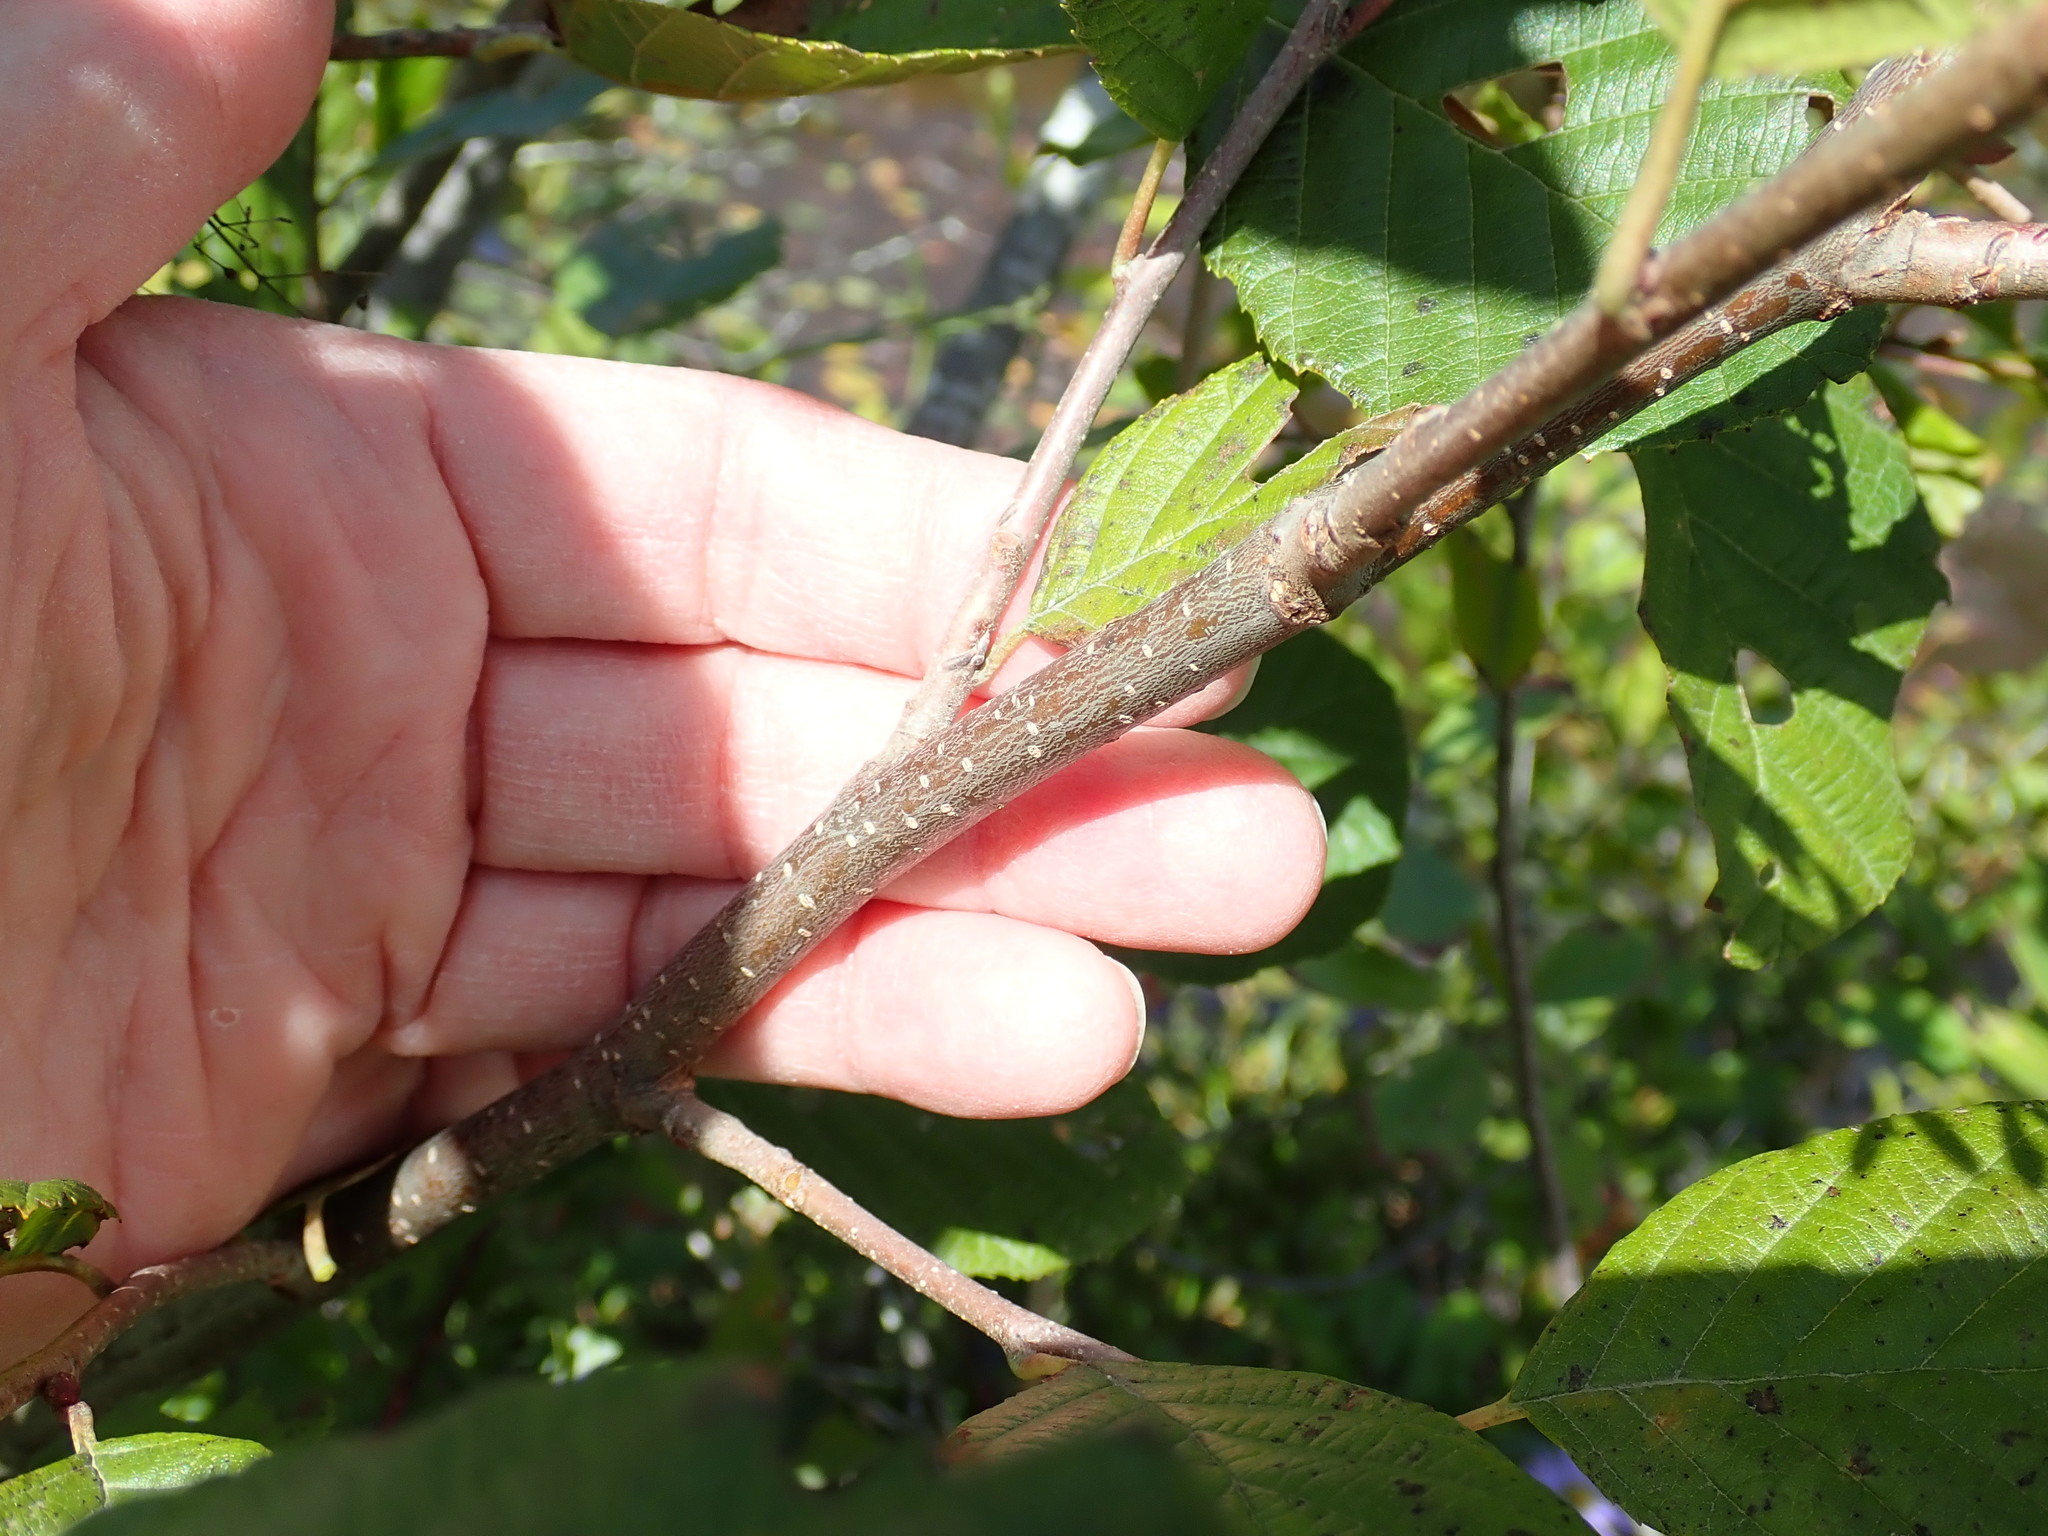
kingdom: Plantae
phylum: Tracheophyta
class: Magnoliopsida
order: Fagales
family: Betulaceae
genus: Alnus
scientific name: Alnus incana
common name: Grey alder
